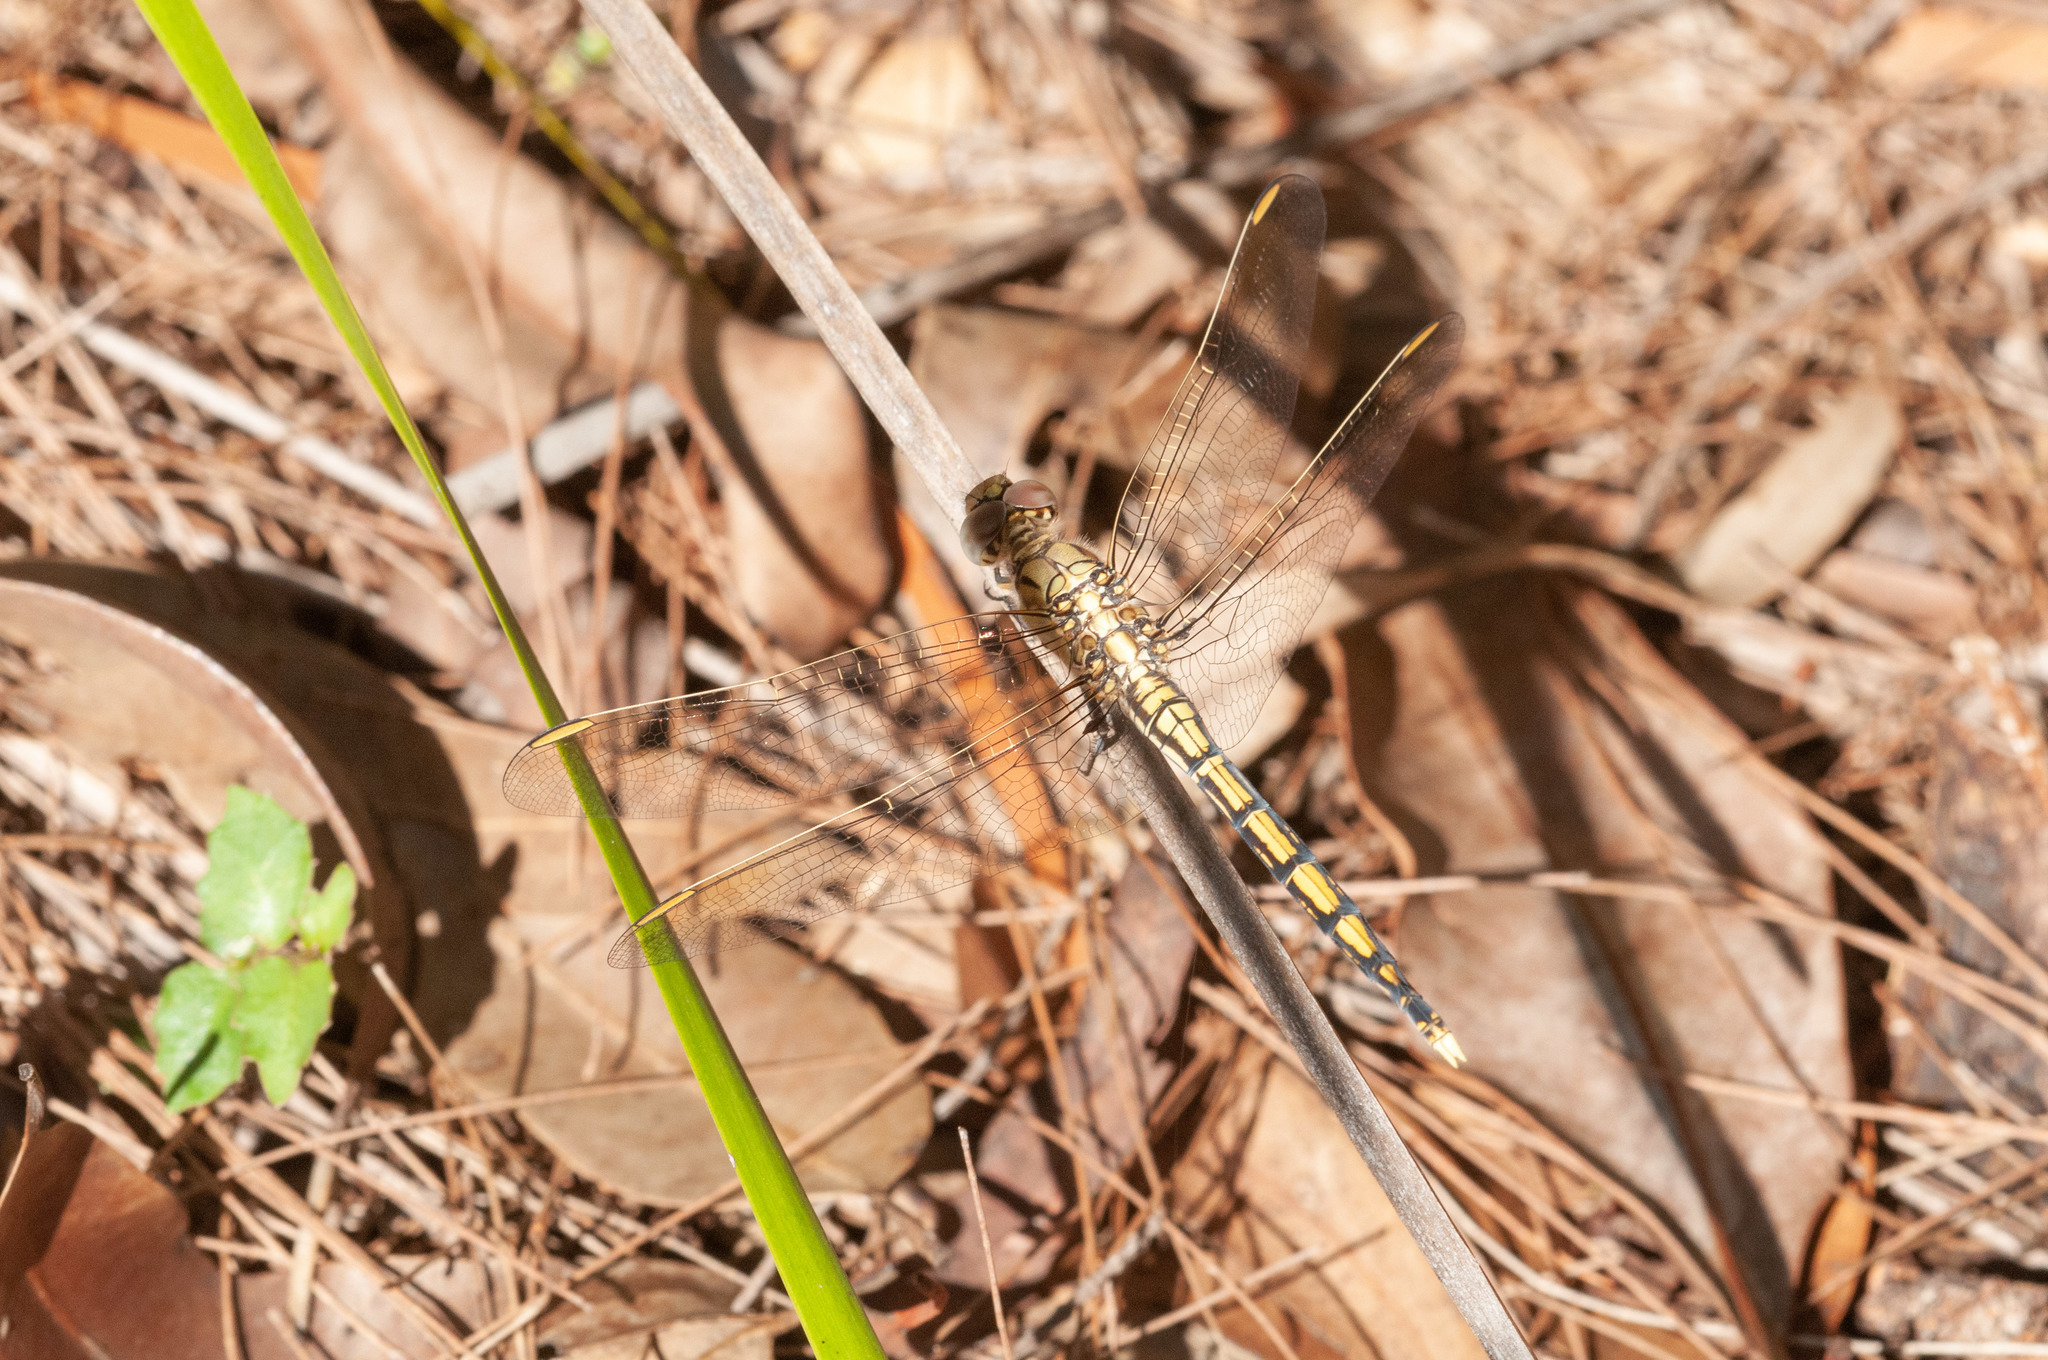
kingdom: Animalia
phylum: Arthropoda
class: Insecta
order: Odonata
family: Libellulidae
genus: Orthetrum
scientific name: Orthetrum caledonicum
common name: Blue skimmer
